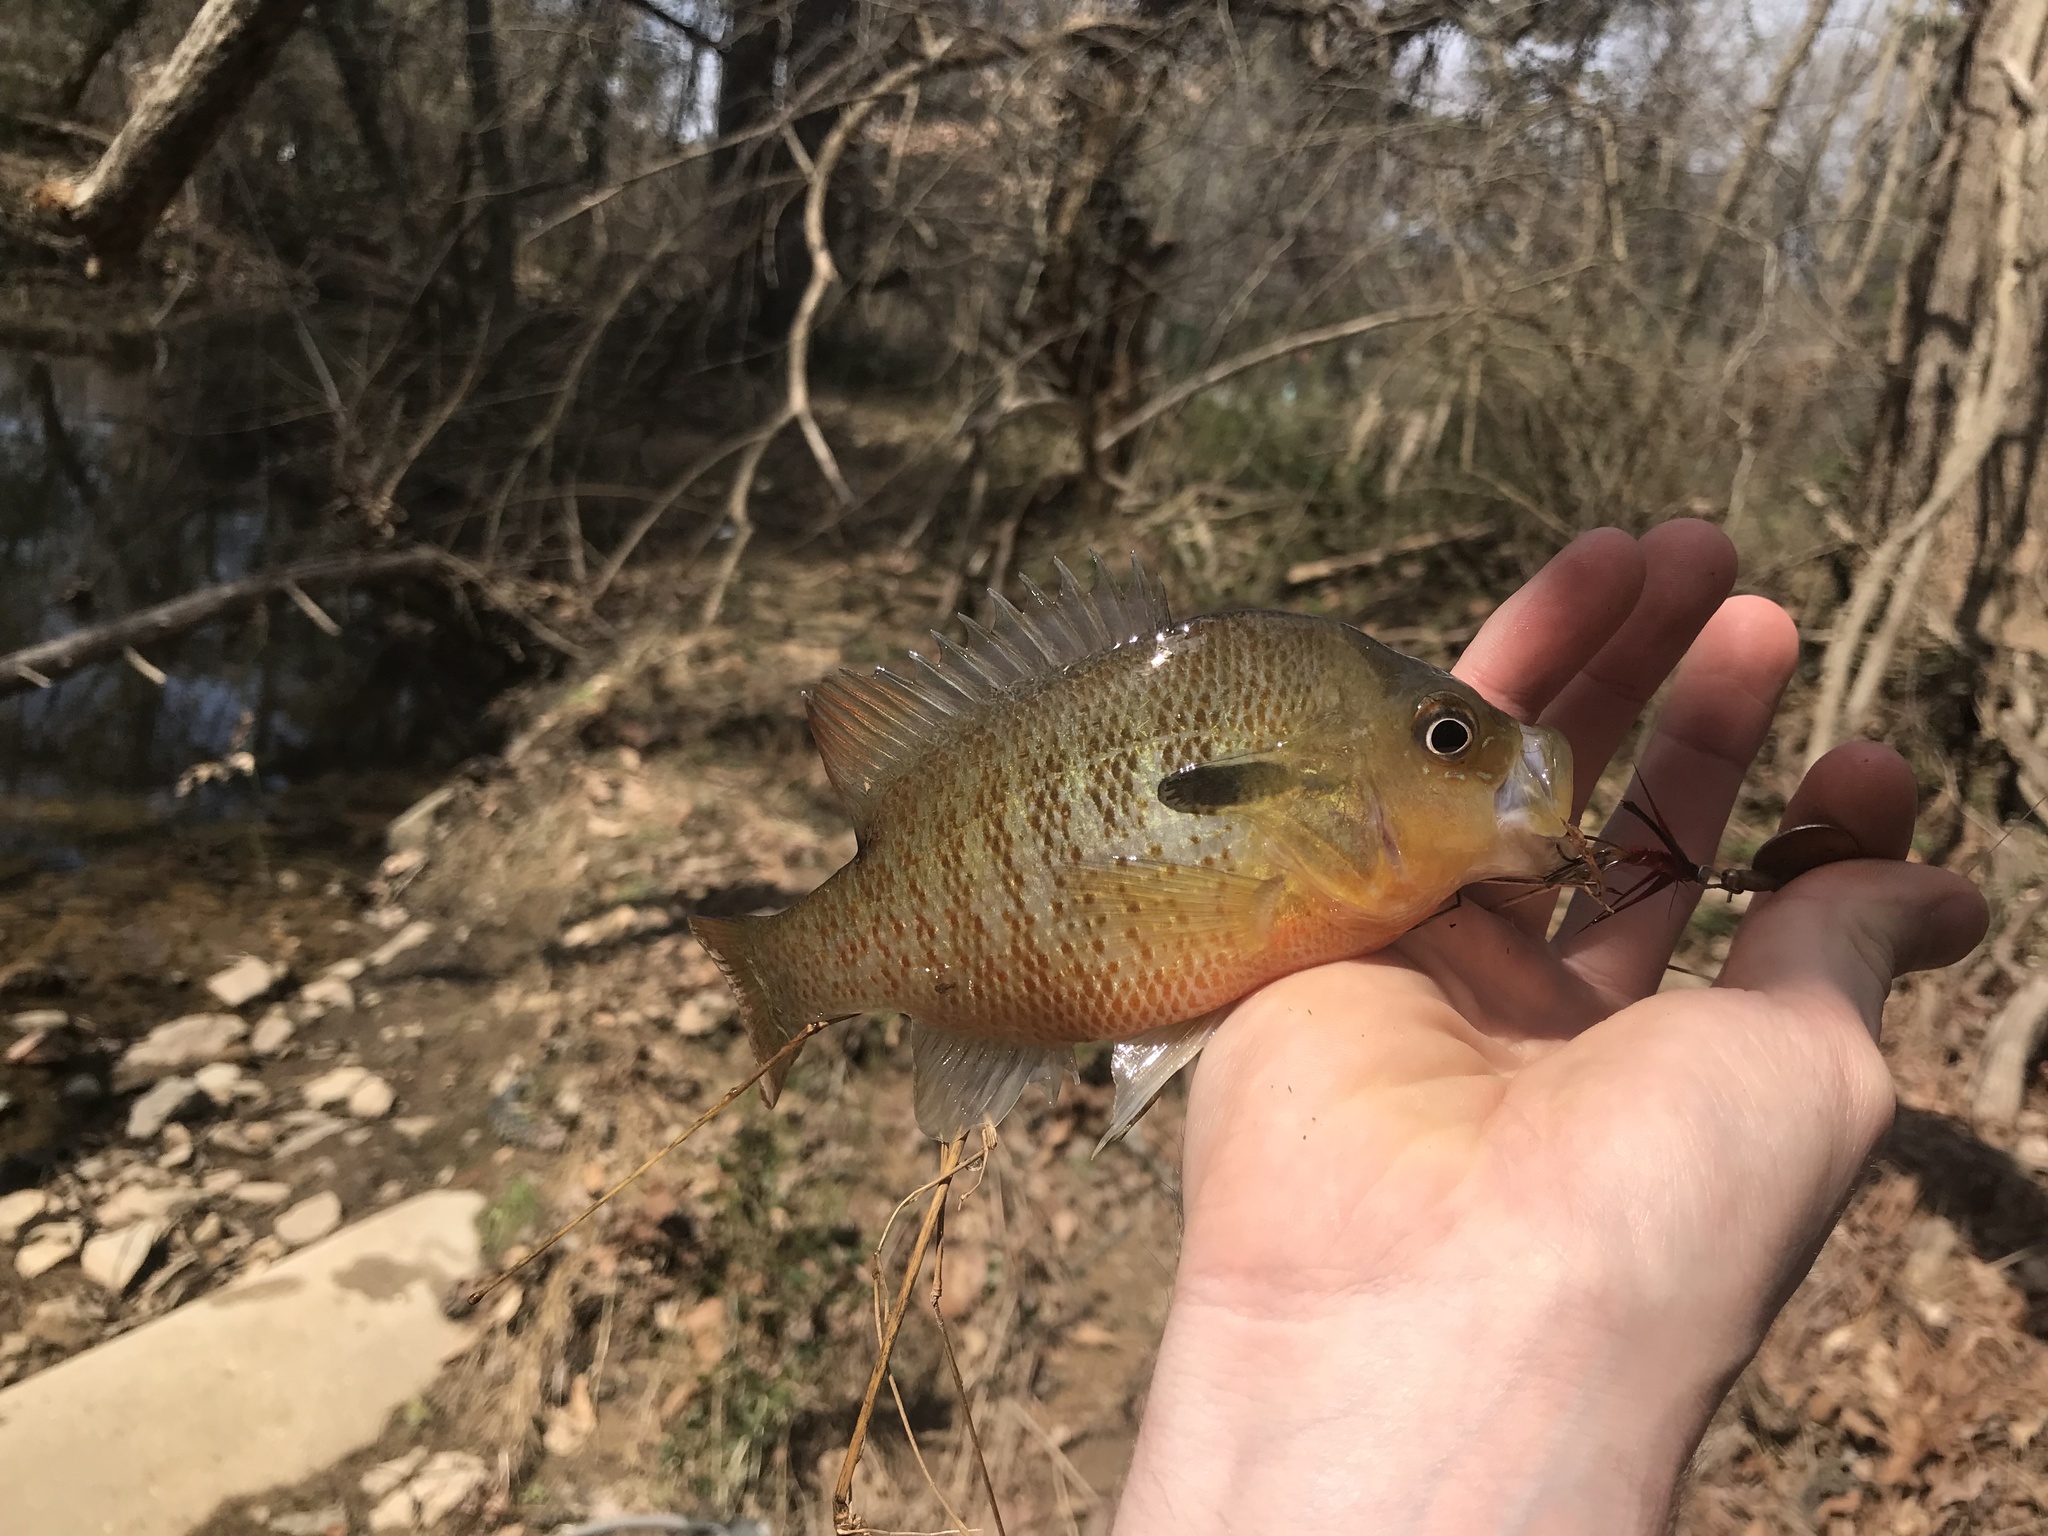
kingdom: Animalia
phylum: Chordata
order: Perciformes
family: Centrarchidae
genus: Lepomis
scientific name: Lepomis auritus
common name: Redbreast sunfish
